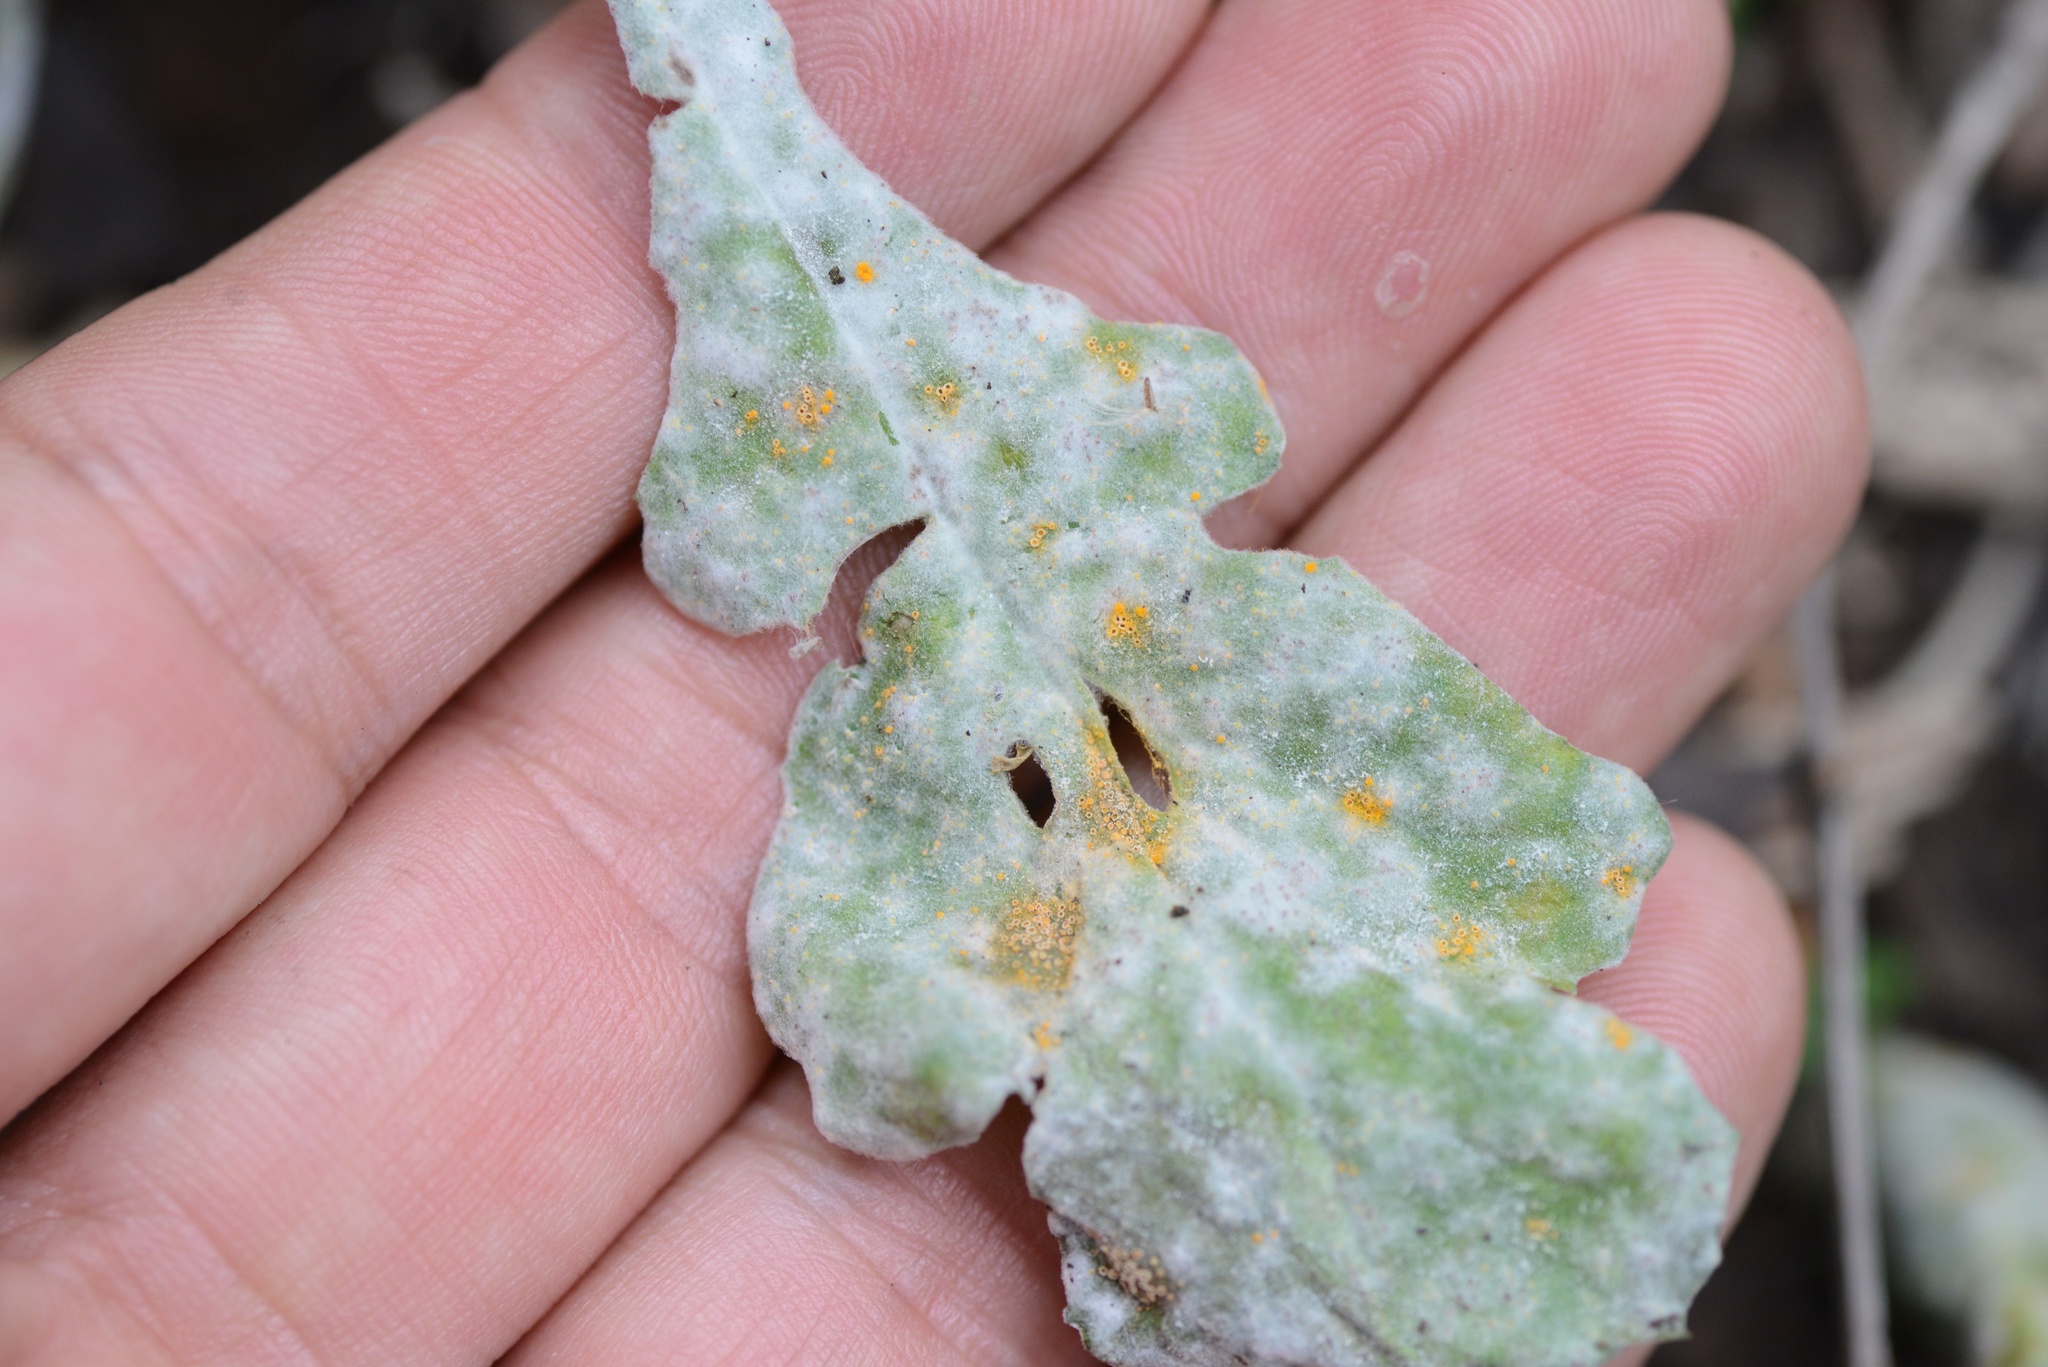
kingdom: Fungi
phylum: Ascomycota
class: Leotiomycetes
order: Helotiales
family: Erysiphaceae
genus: Golovinomyces
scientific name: Golovinomyces fischeri
